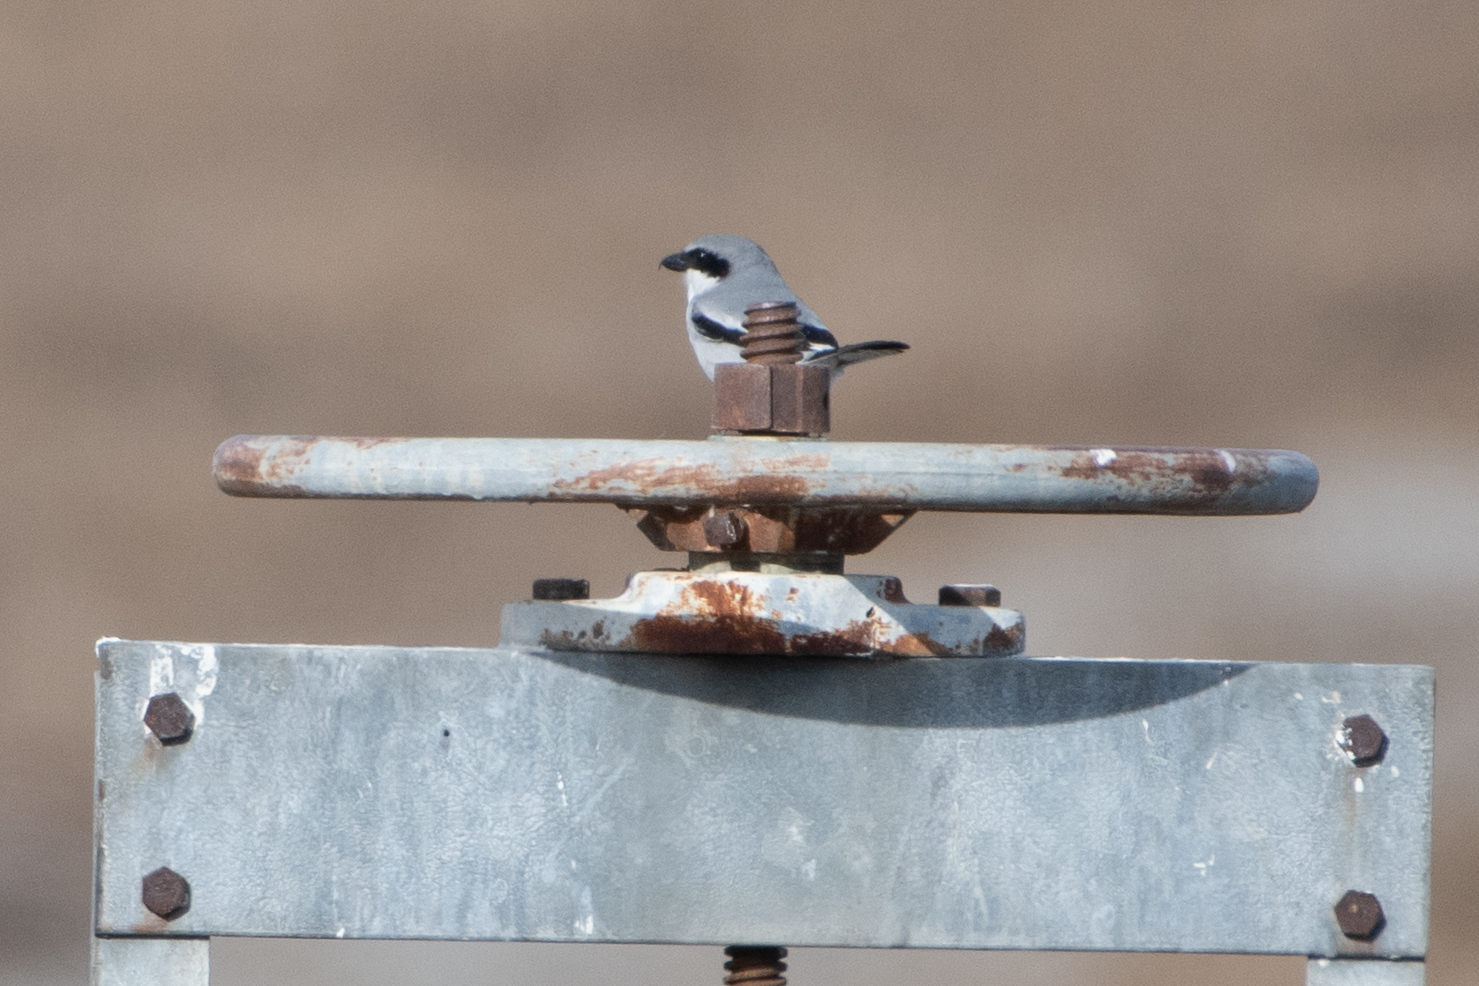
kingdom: Animalia
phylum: Chordata
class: Aves
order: Passeriformes
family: Laniidae
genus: Lanius
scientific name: Lanius ludovicianus
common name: Loggerhead shrike
